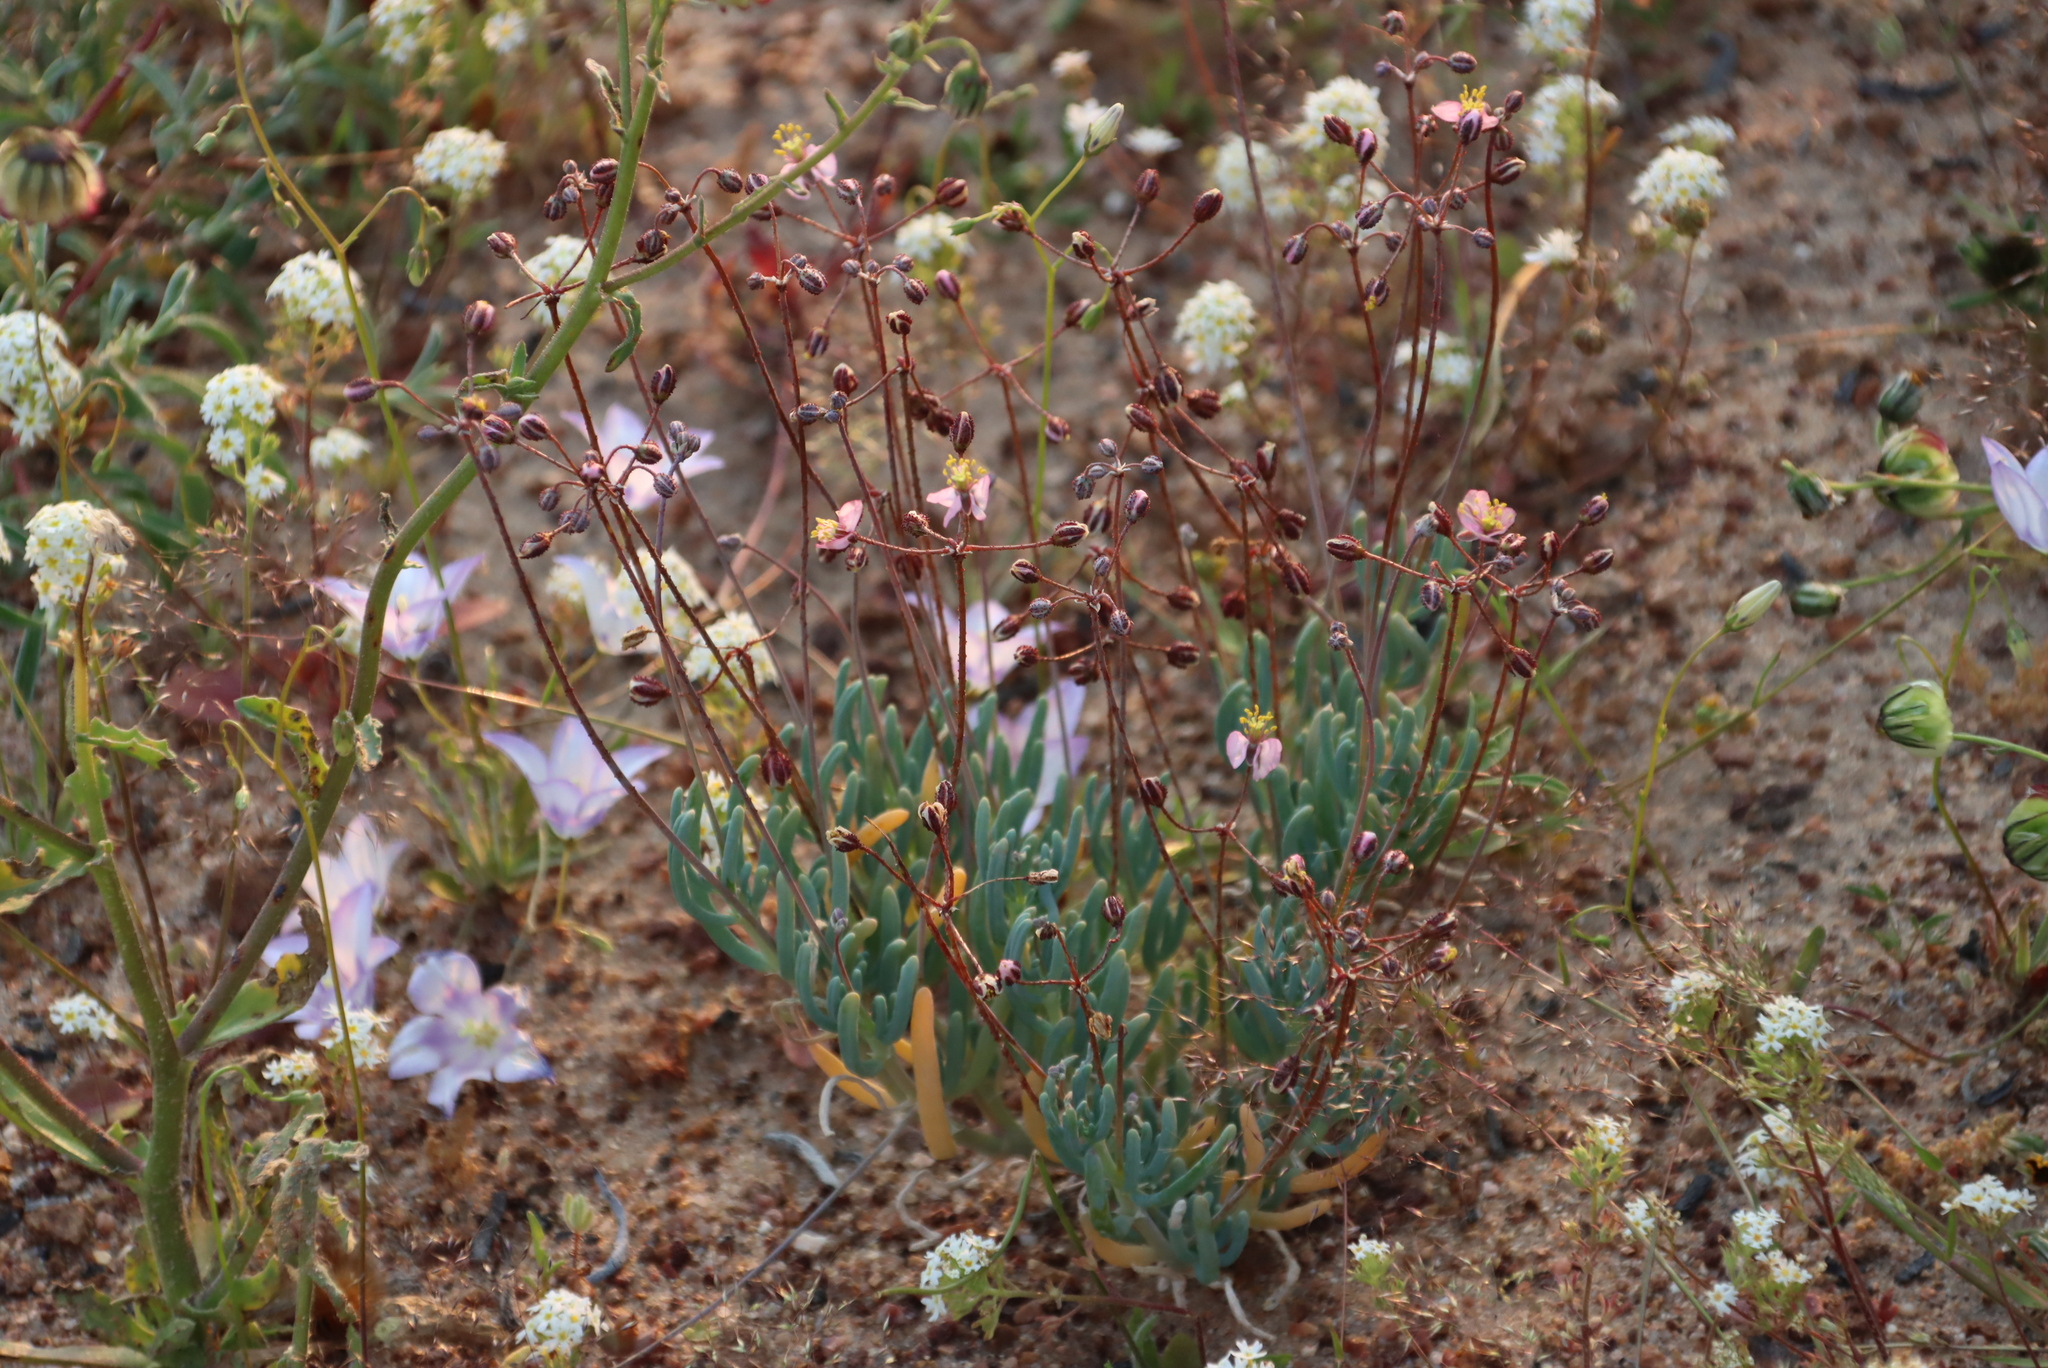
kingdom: Plantae
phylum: Tracheophyta
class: Magnoliopsida
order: Caryophyllales
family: Kewaceae
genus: Kewa
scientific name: Kewa salsoloides
